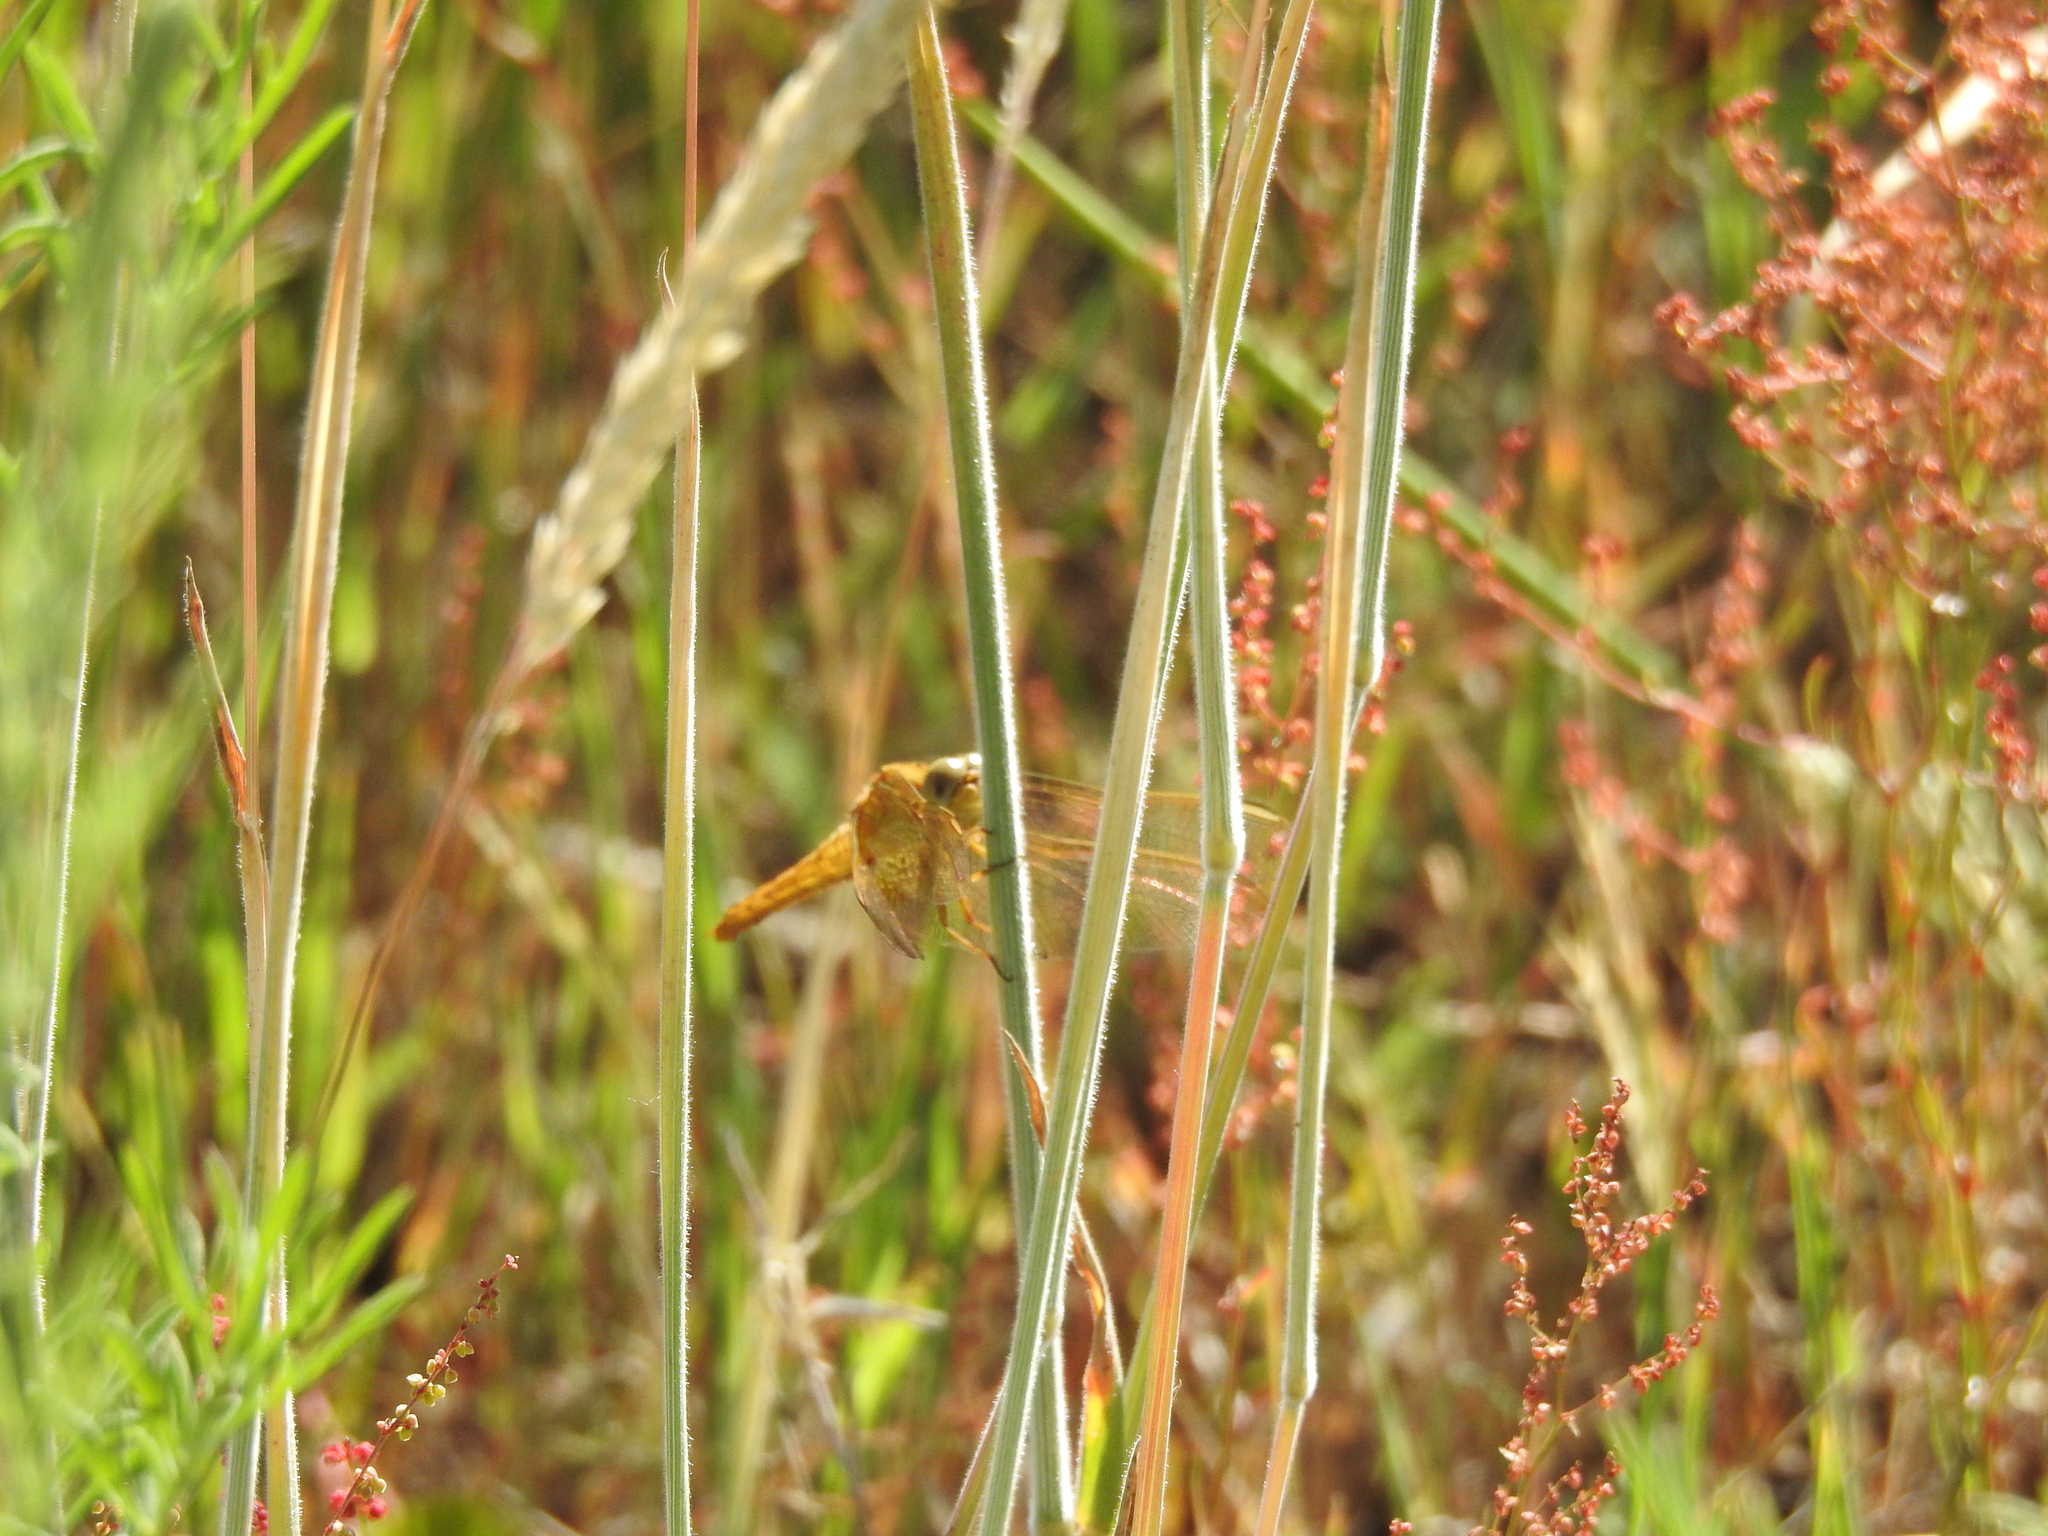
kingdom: Animalia
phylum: Arthropoda
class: Insecta
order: Odonata
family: Libellulidae
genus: Crocothemis
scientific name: Crocothemis erythraea
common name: Scarlet dragonfly
